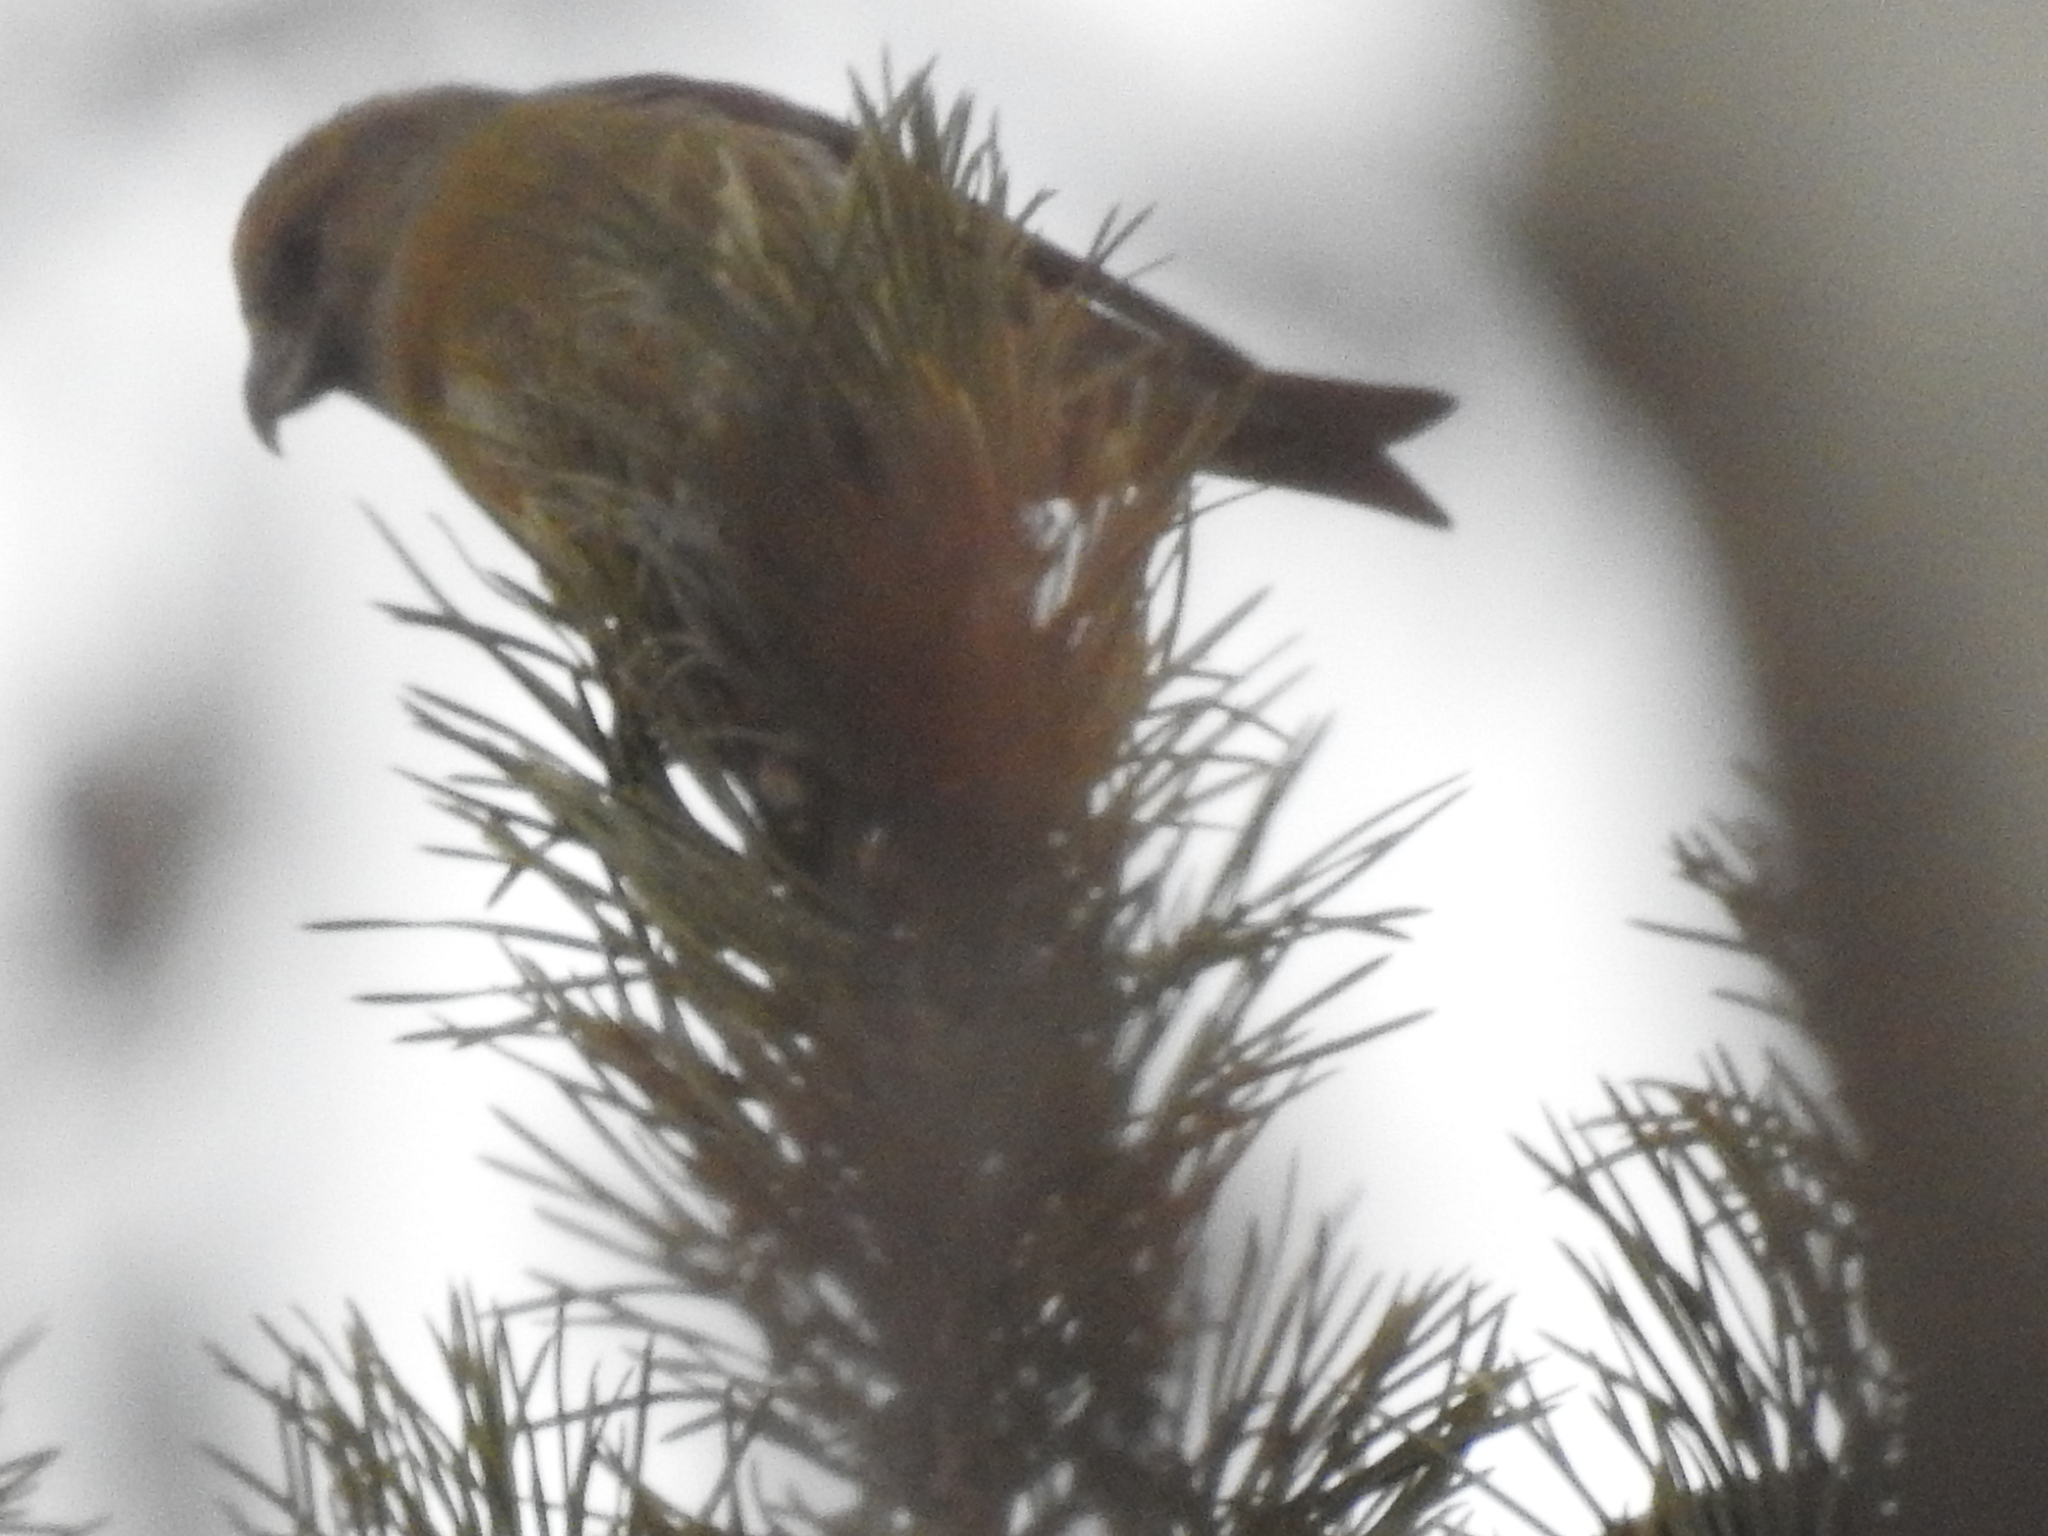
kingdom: Animalia
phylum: Chordata
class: Aves
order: Passeriformes
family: Fringillidae
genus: Loxia
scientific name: Loxia curvirostra
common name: Red crossbill
